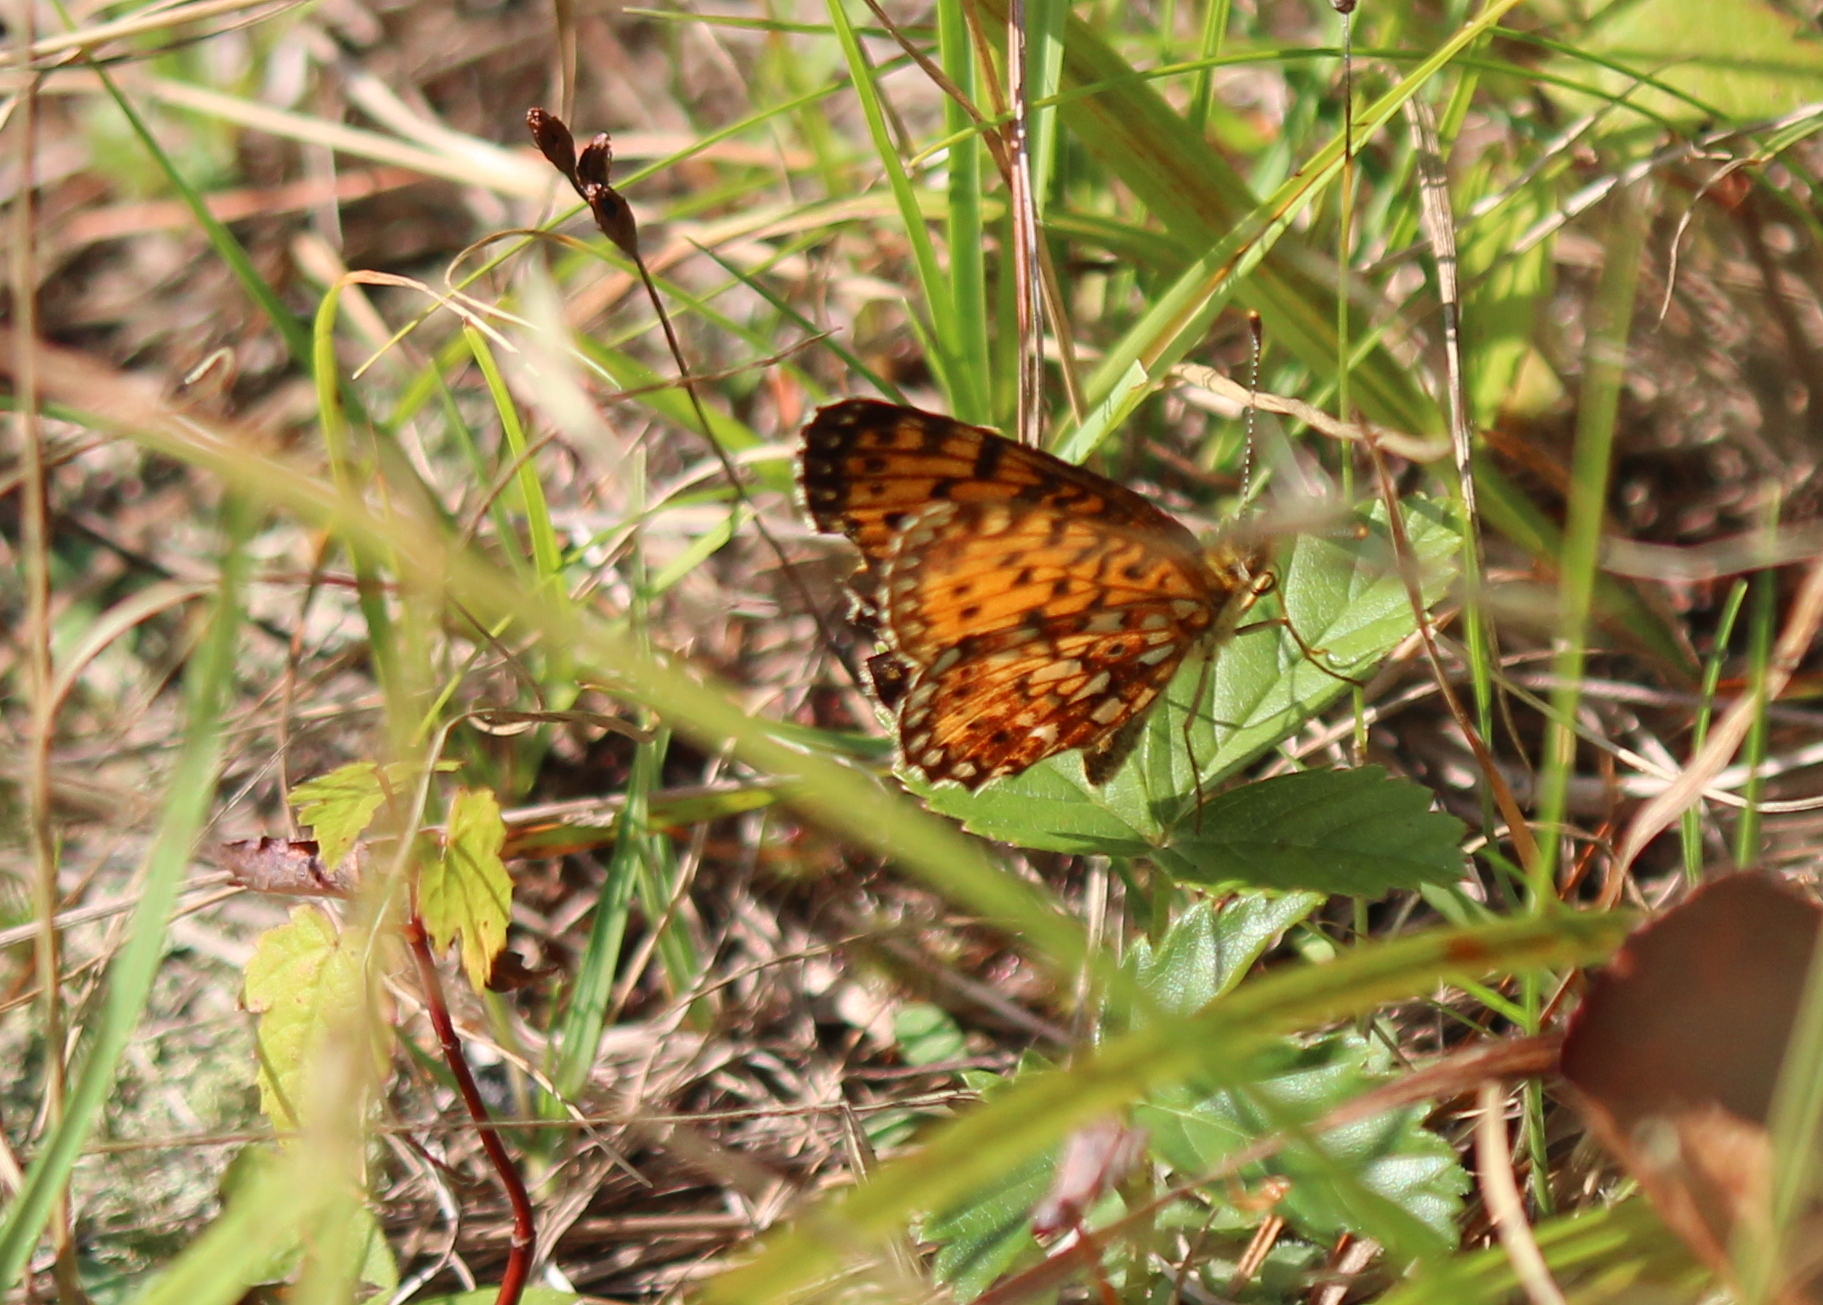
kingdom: Animalia
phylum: Arthropoda
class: Insecta
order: Lepidoptera
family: Nymphalidae
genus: Boloria
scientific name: Boloria
